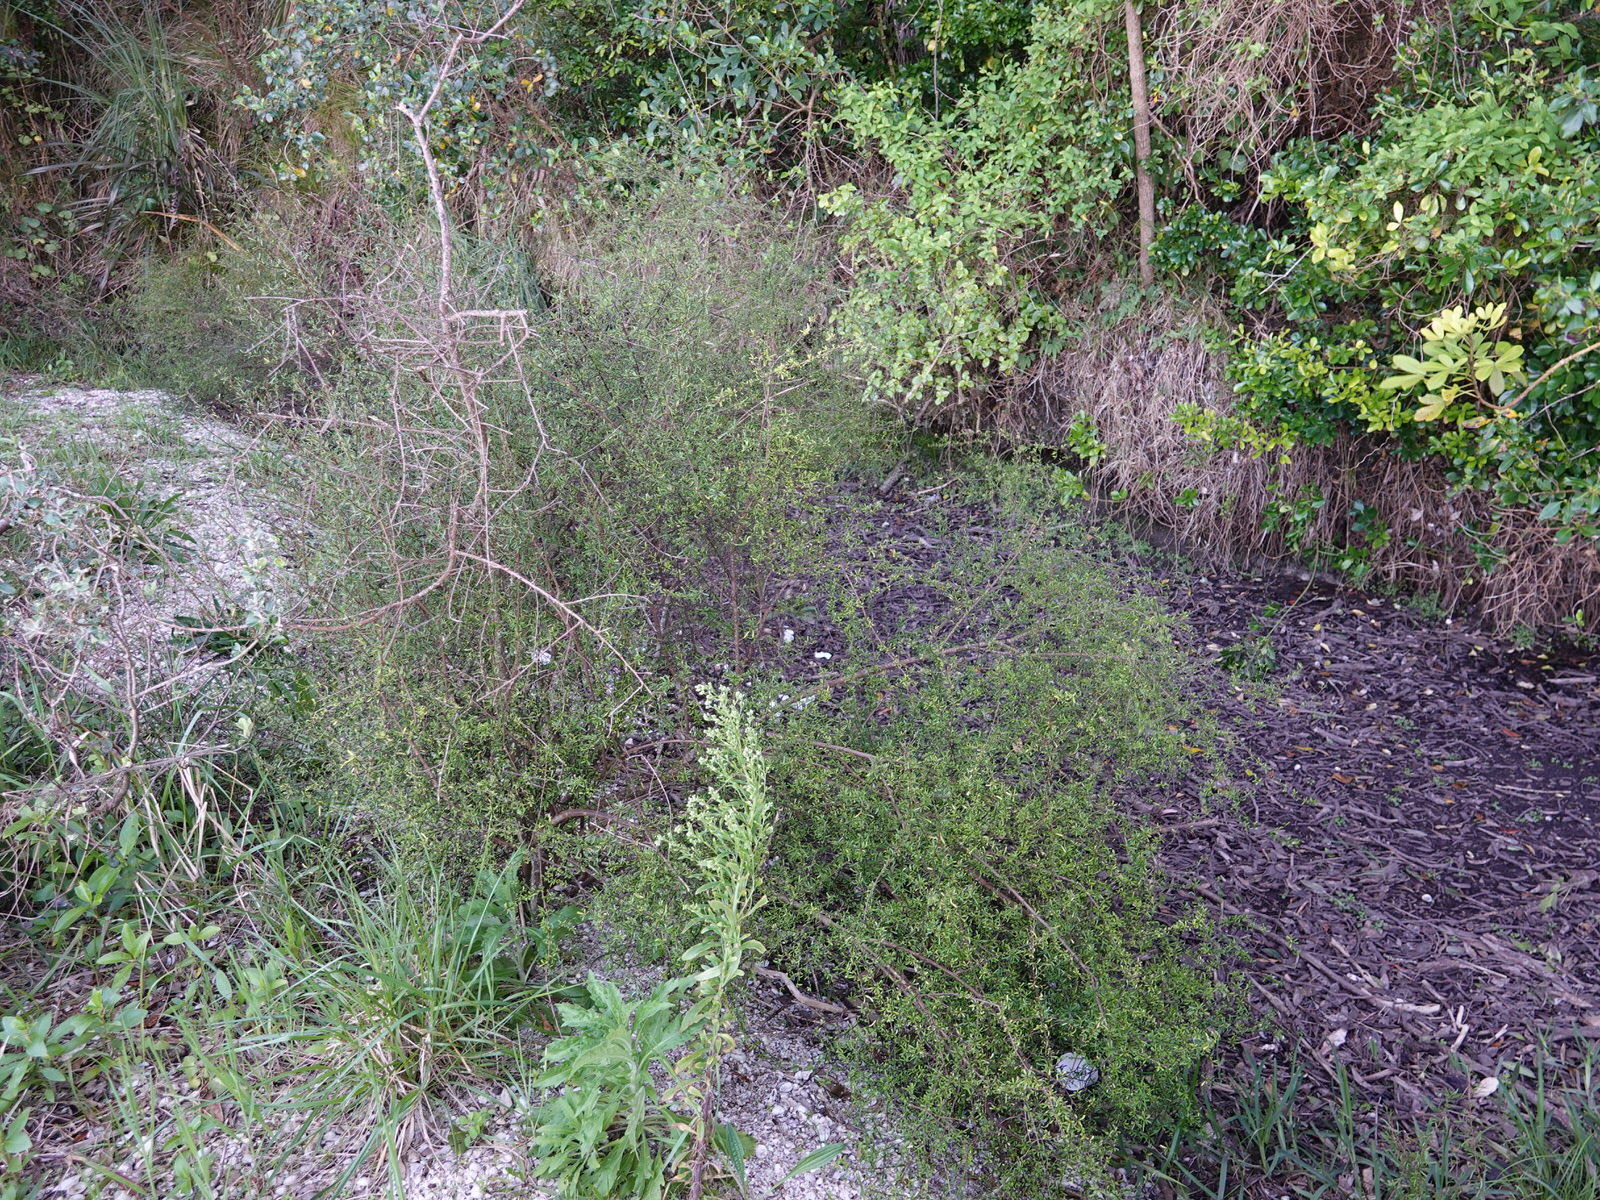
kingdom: Plantae
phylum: Tracheophyta
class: Magnoliopsida
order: Malvales
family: Malvaceae
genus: Plagianthus
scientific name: Plagianthus divaricatus
